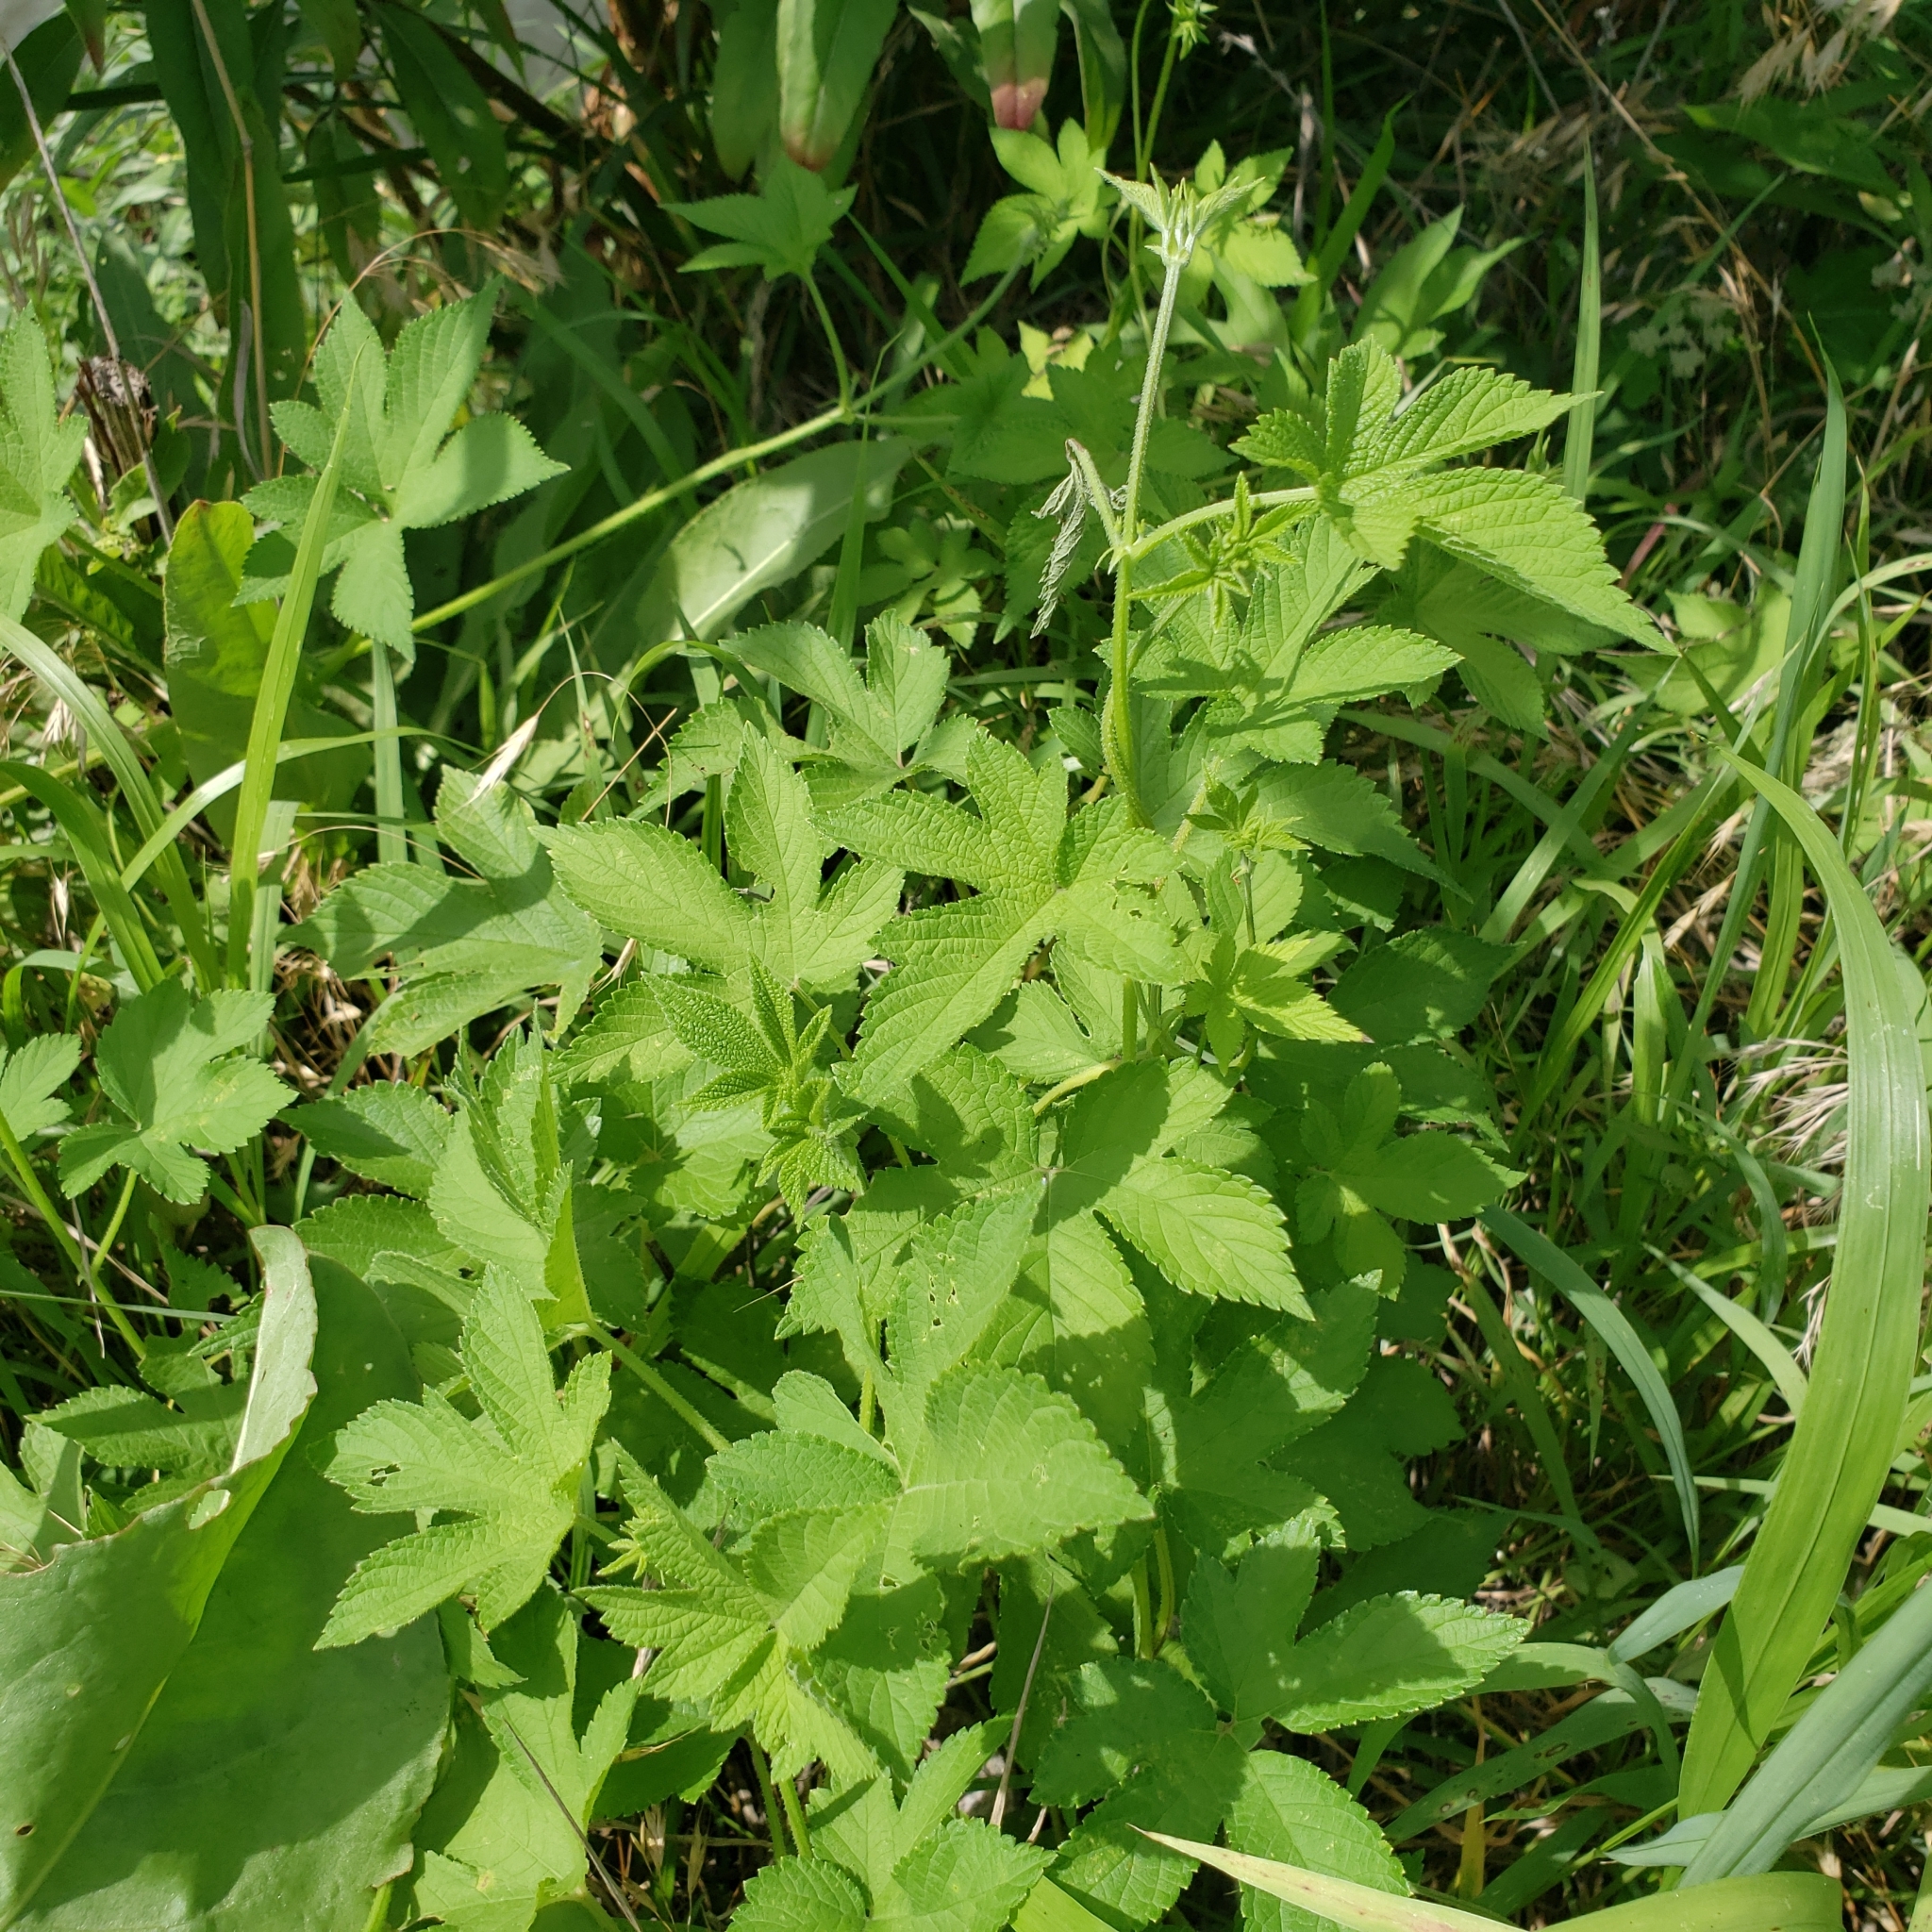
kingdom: Plantae
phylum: Tracheophyta
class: Magnoliopsida
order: Rosales
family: Cannabaceae
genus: Humulus
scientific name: Humulus scandens
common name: Japanese hop
